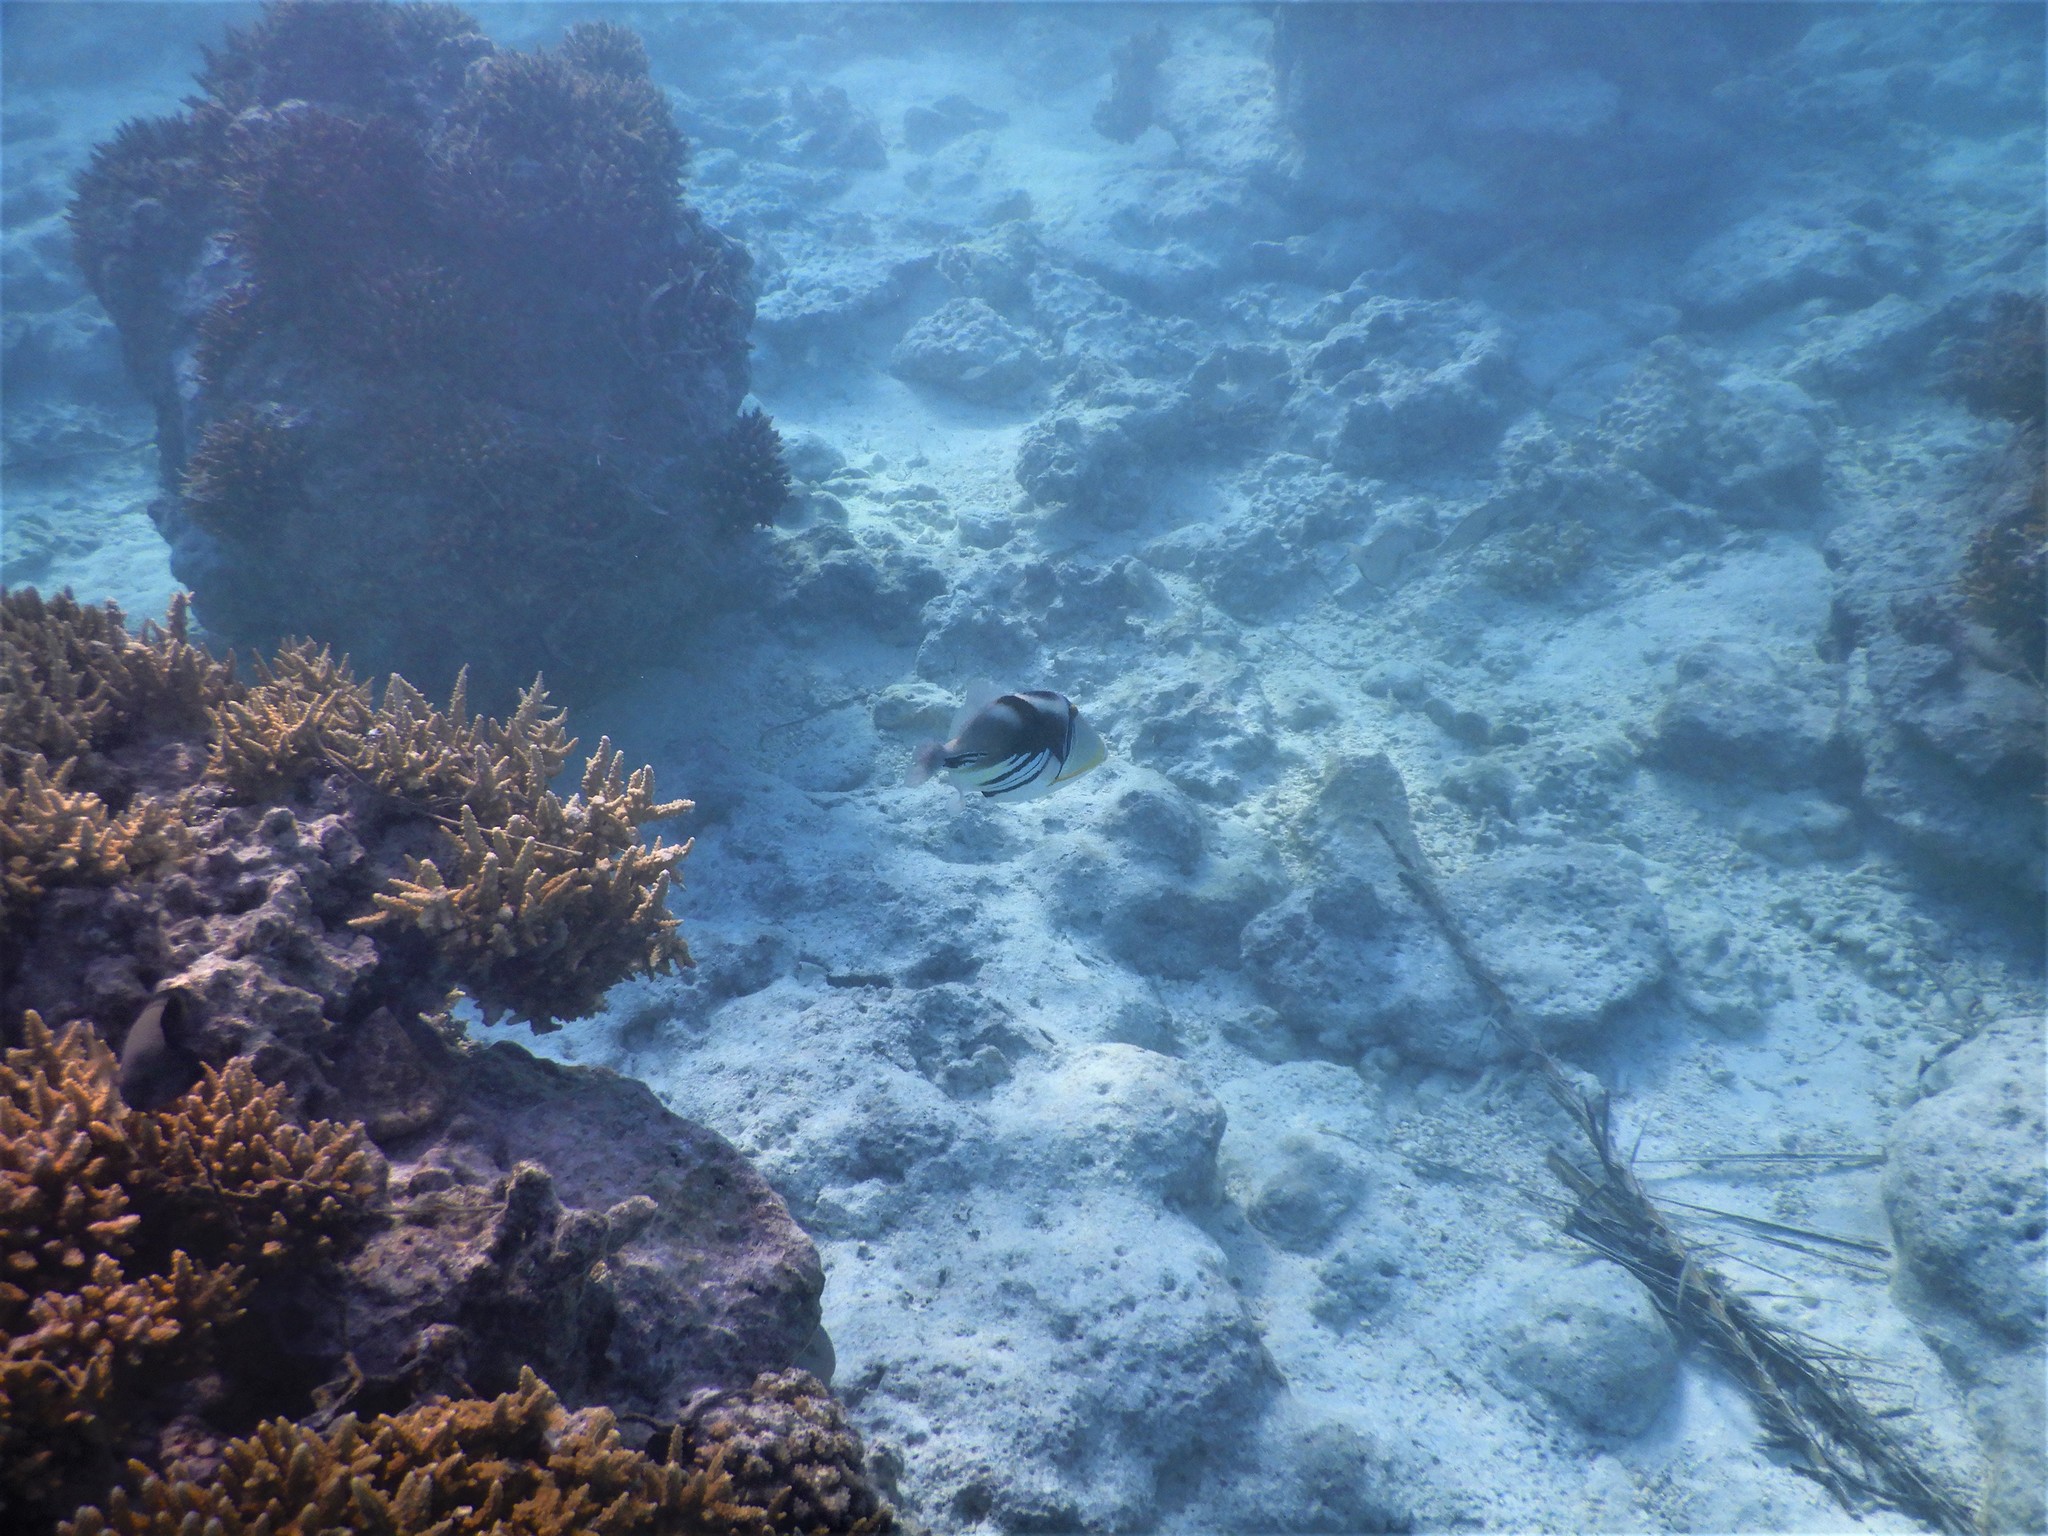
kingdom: Animalia
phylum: Chordata
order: Tetraodontiformes
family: Balistidae
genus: Rhinecanthus
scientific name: Rhinecanthus aculeatus
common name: White-banded triggerfish
